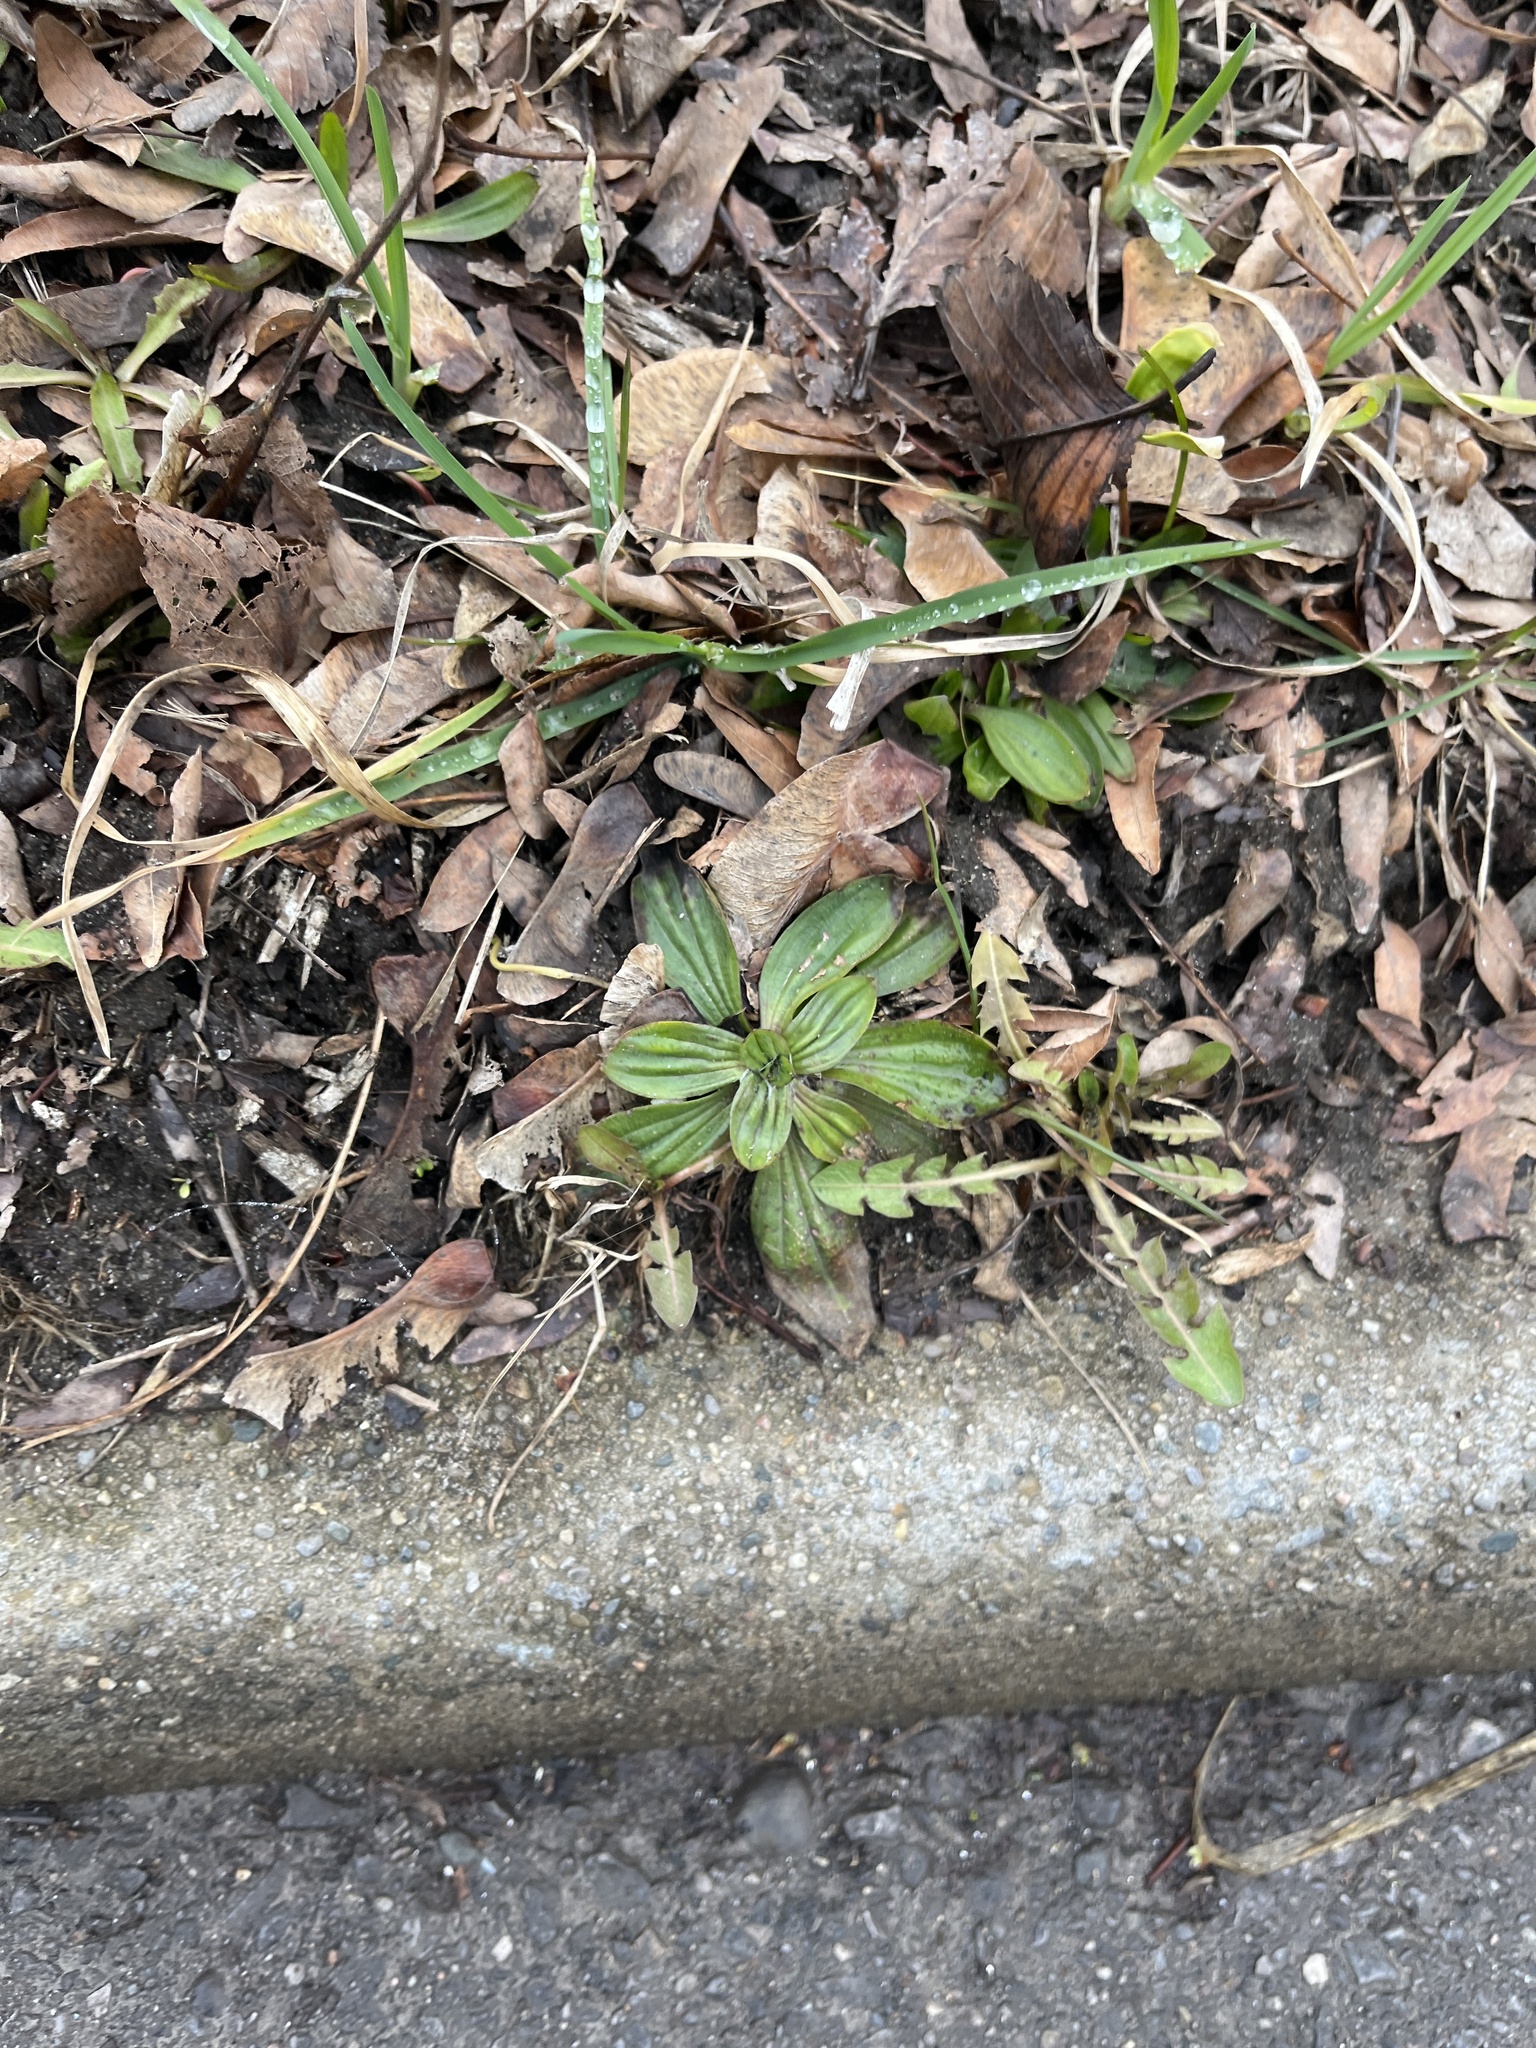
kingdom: Plantae
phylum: Tracheophyta
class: Magnoliopsida
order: Lamiales
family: Plantaginaceae
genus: Plantago
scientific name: Plantago lanceolata
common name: Ribwort plantain
